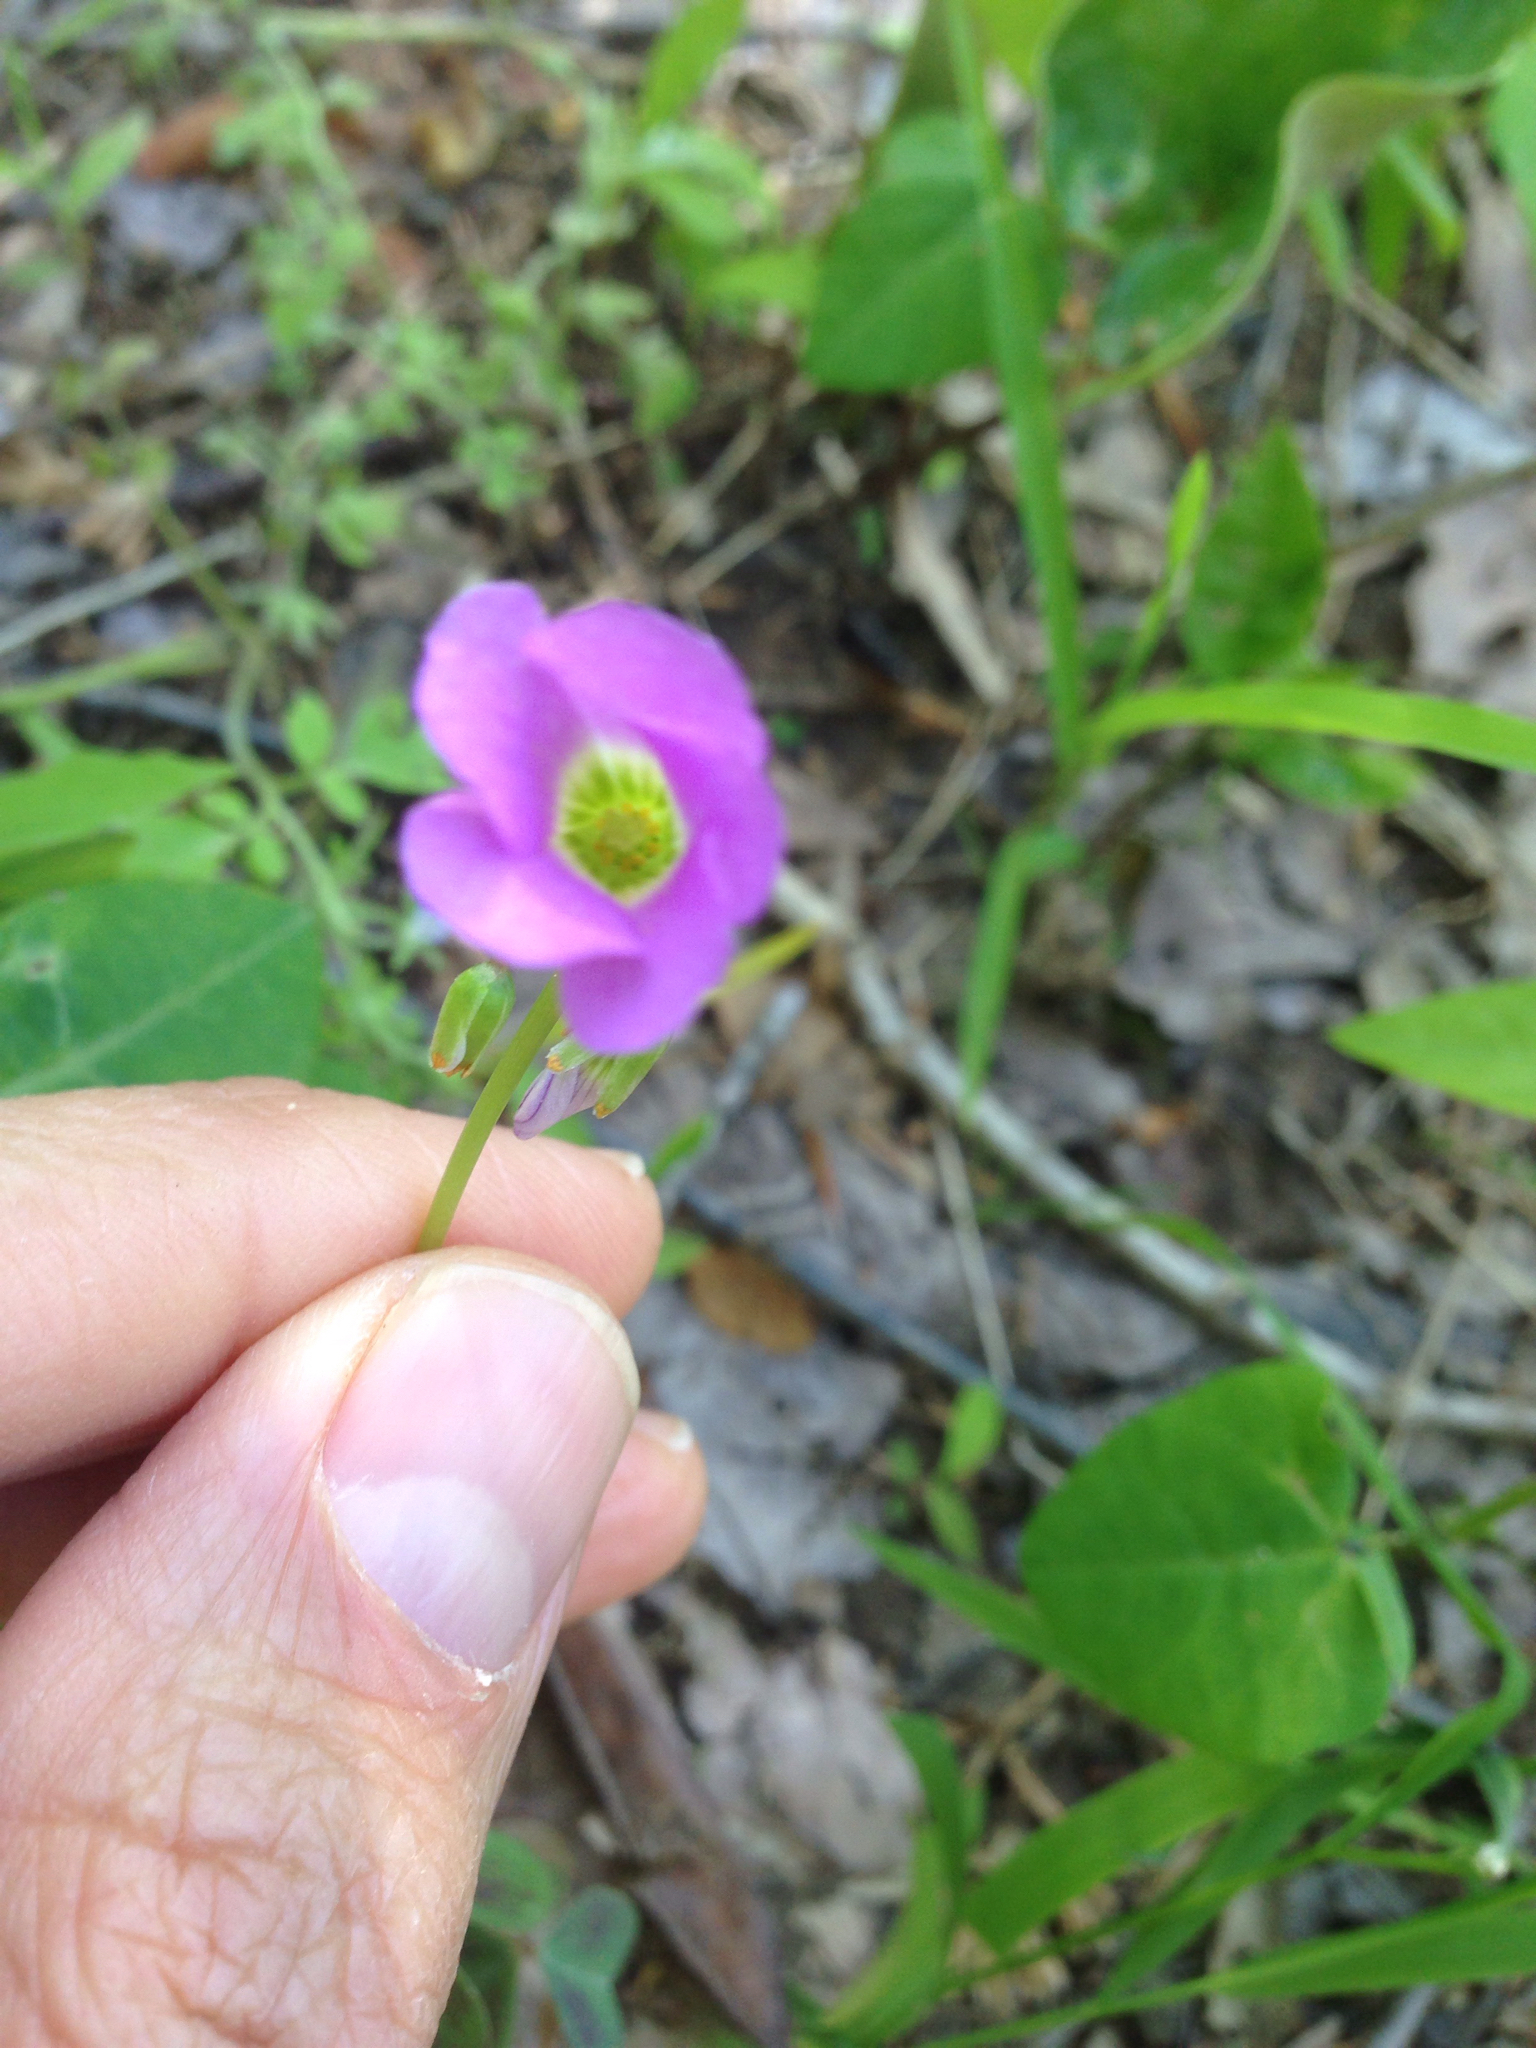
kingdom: Plantae
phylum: Tracheophyta
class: Magnoliopsida
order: Oxalidales
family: Oxalidaceae
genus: Oxalis
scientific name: Oxalis violacea
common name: Violet wood-sorrel
